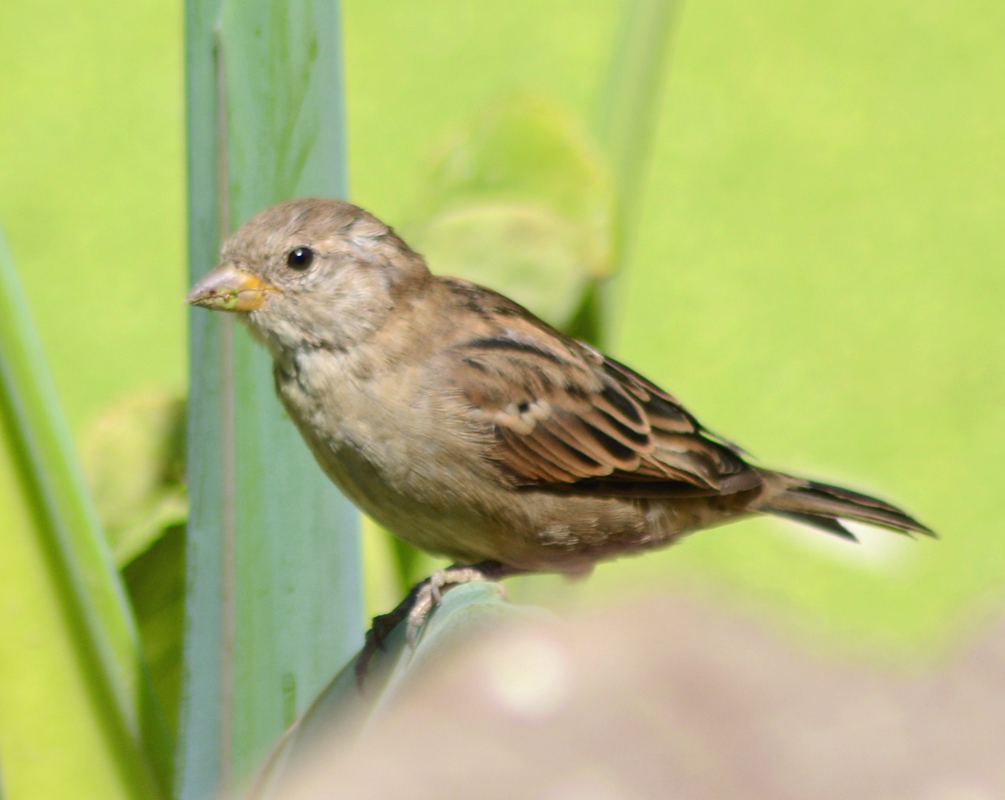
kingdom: Animalia
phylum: Chordata
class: Aves
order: Passeriformes
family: Passeridae
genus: Passer
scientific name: Passer domesticus
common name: House sparrow
